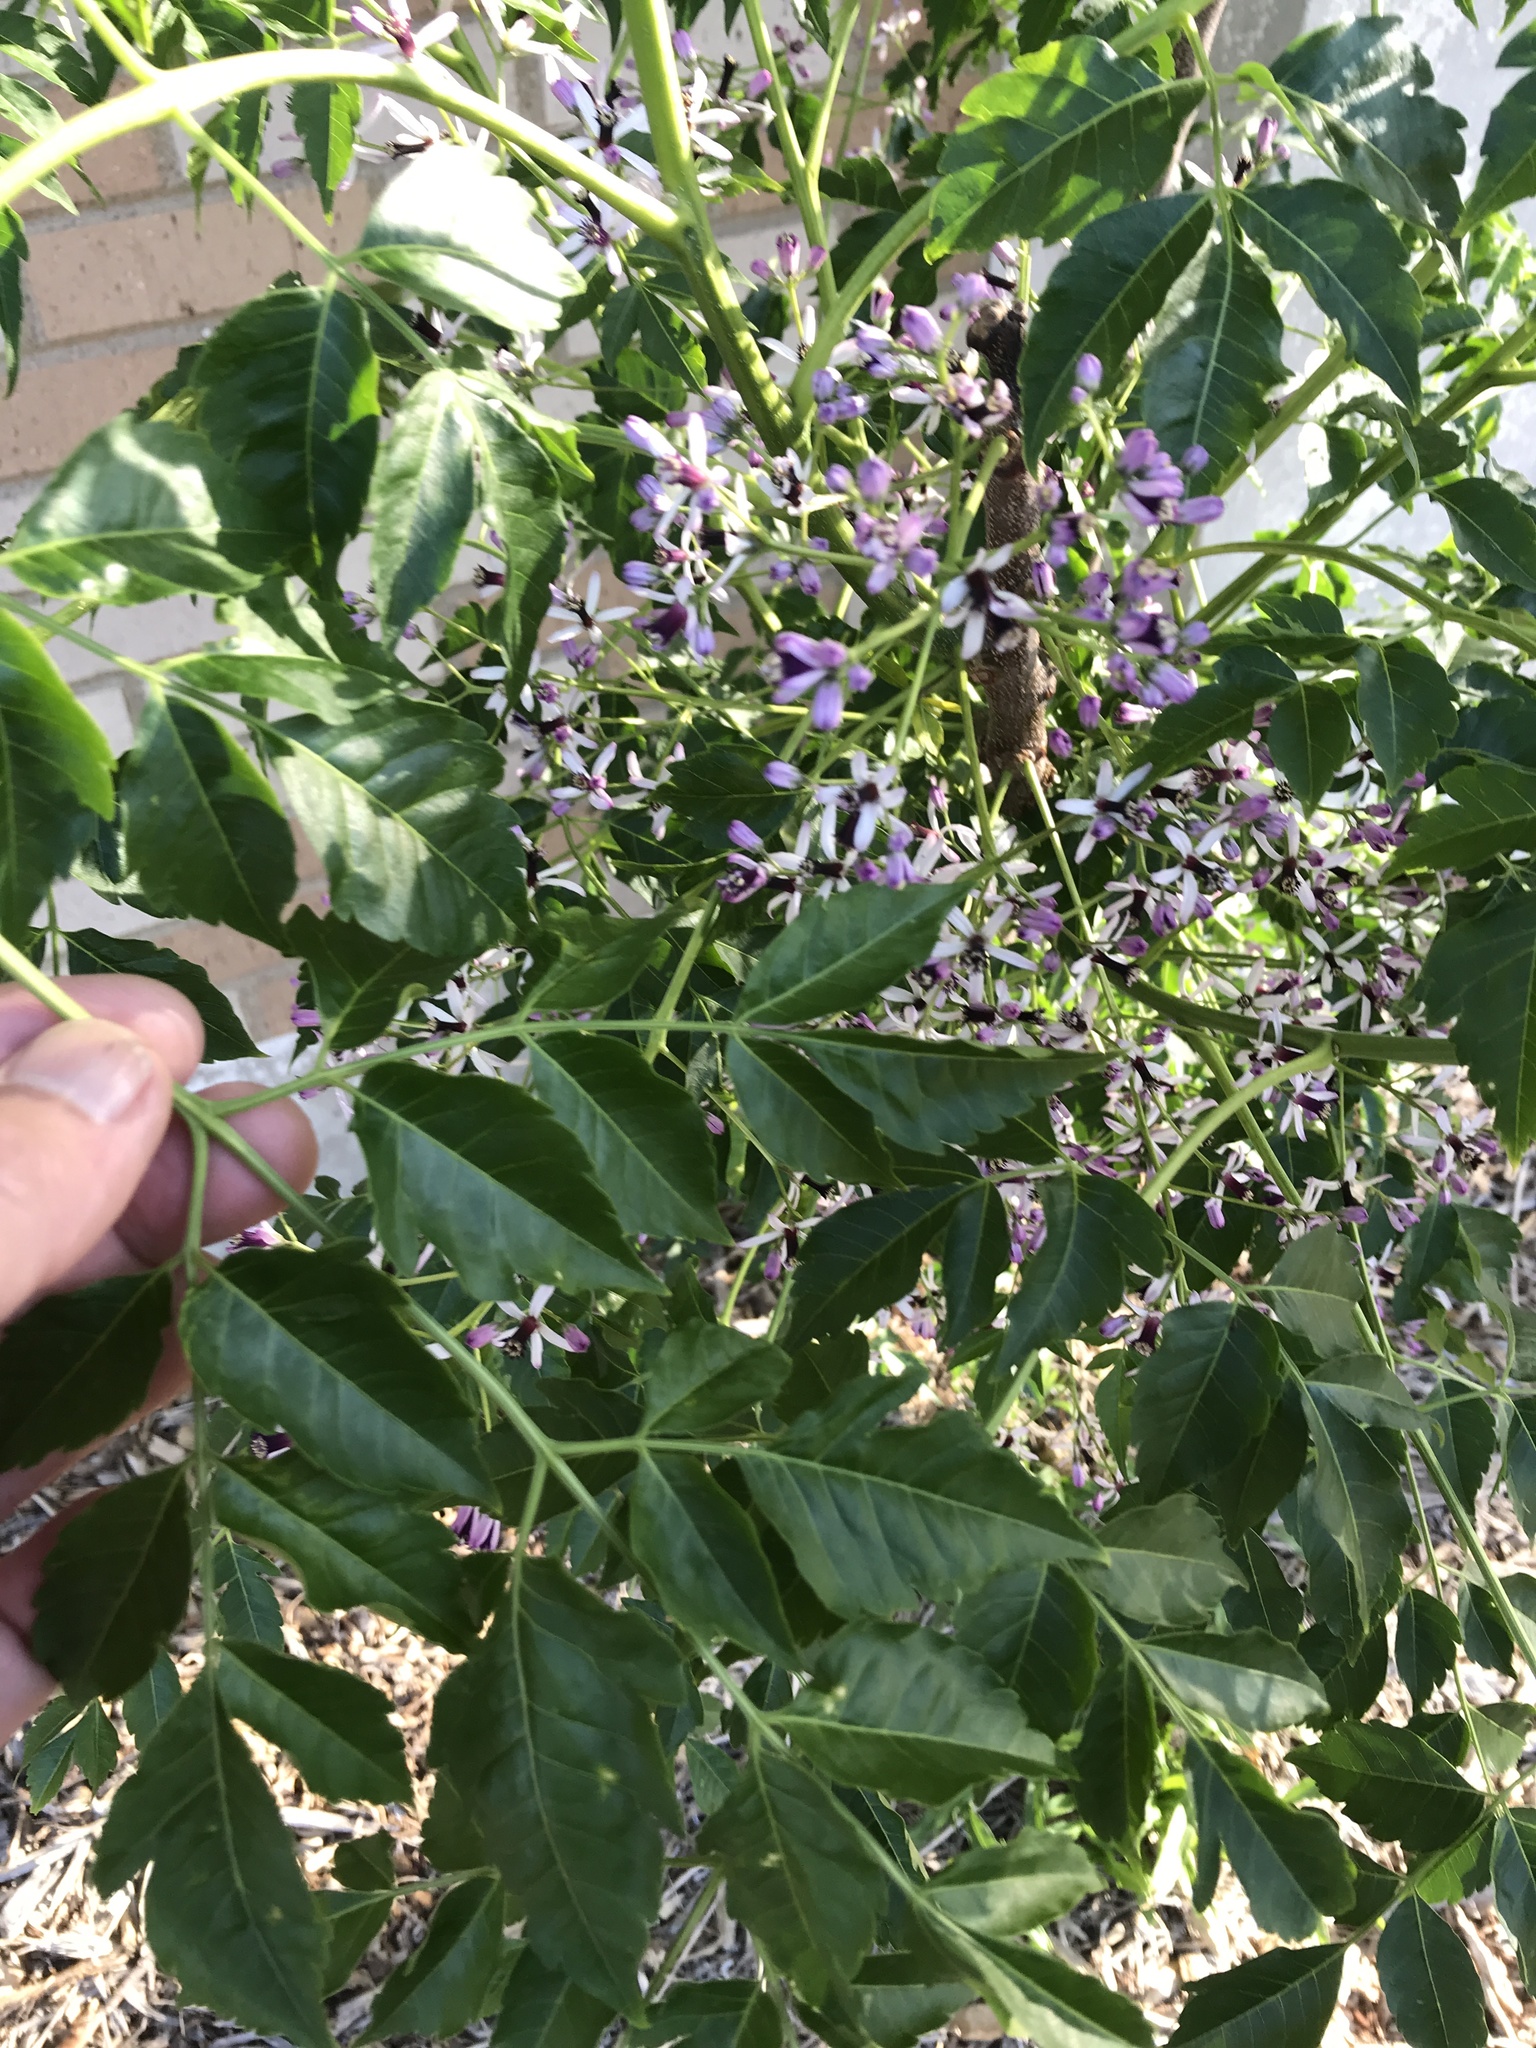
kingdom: Plantae
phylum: Tracheophyta
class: Magnoliopsida
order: Sapindales
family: Meliaceae
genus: Melia
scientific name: Melia azedarach
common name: Chinaberrytree
